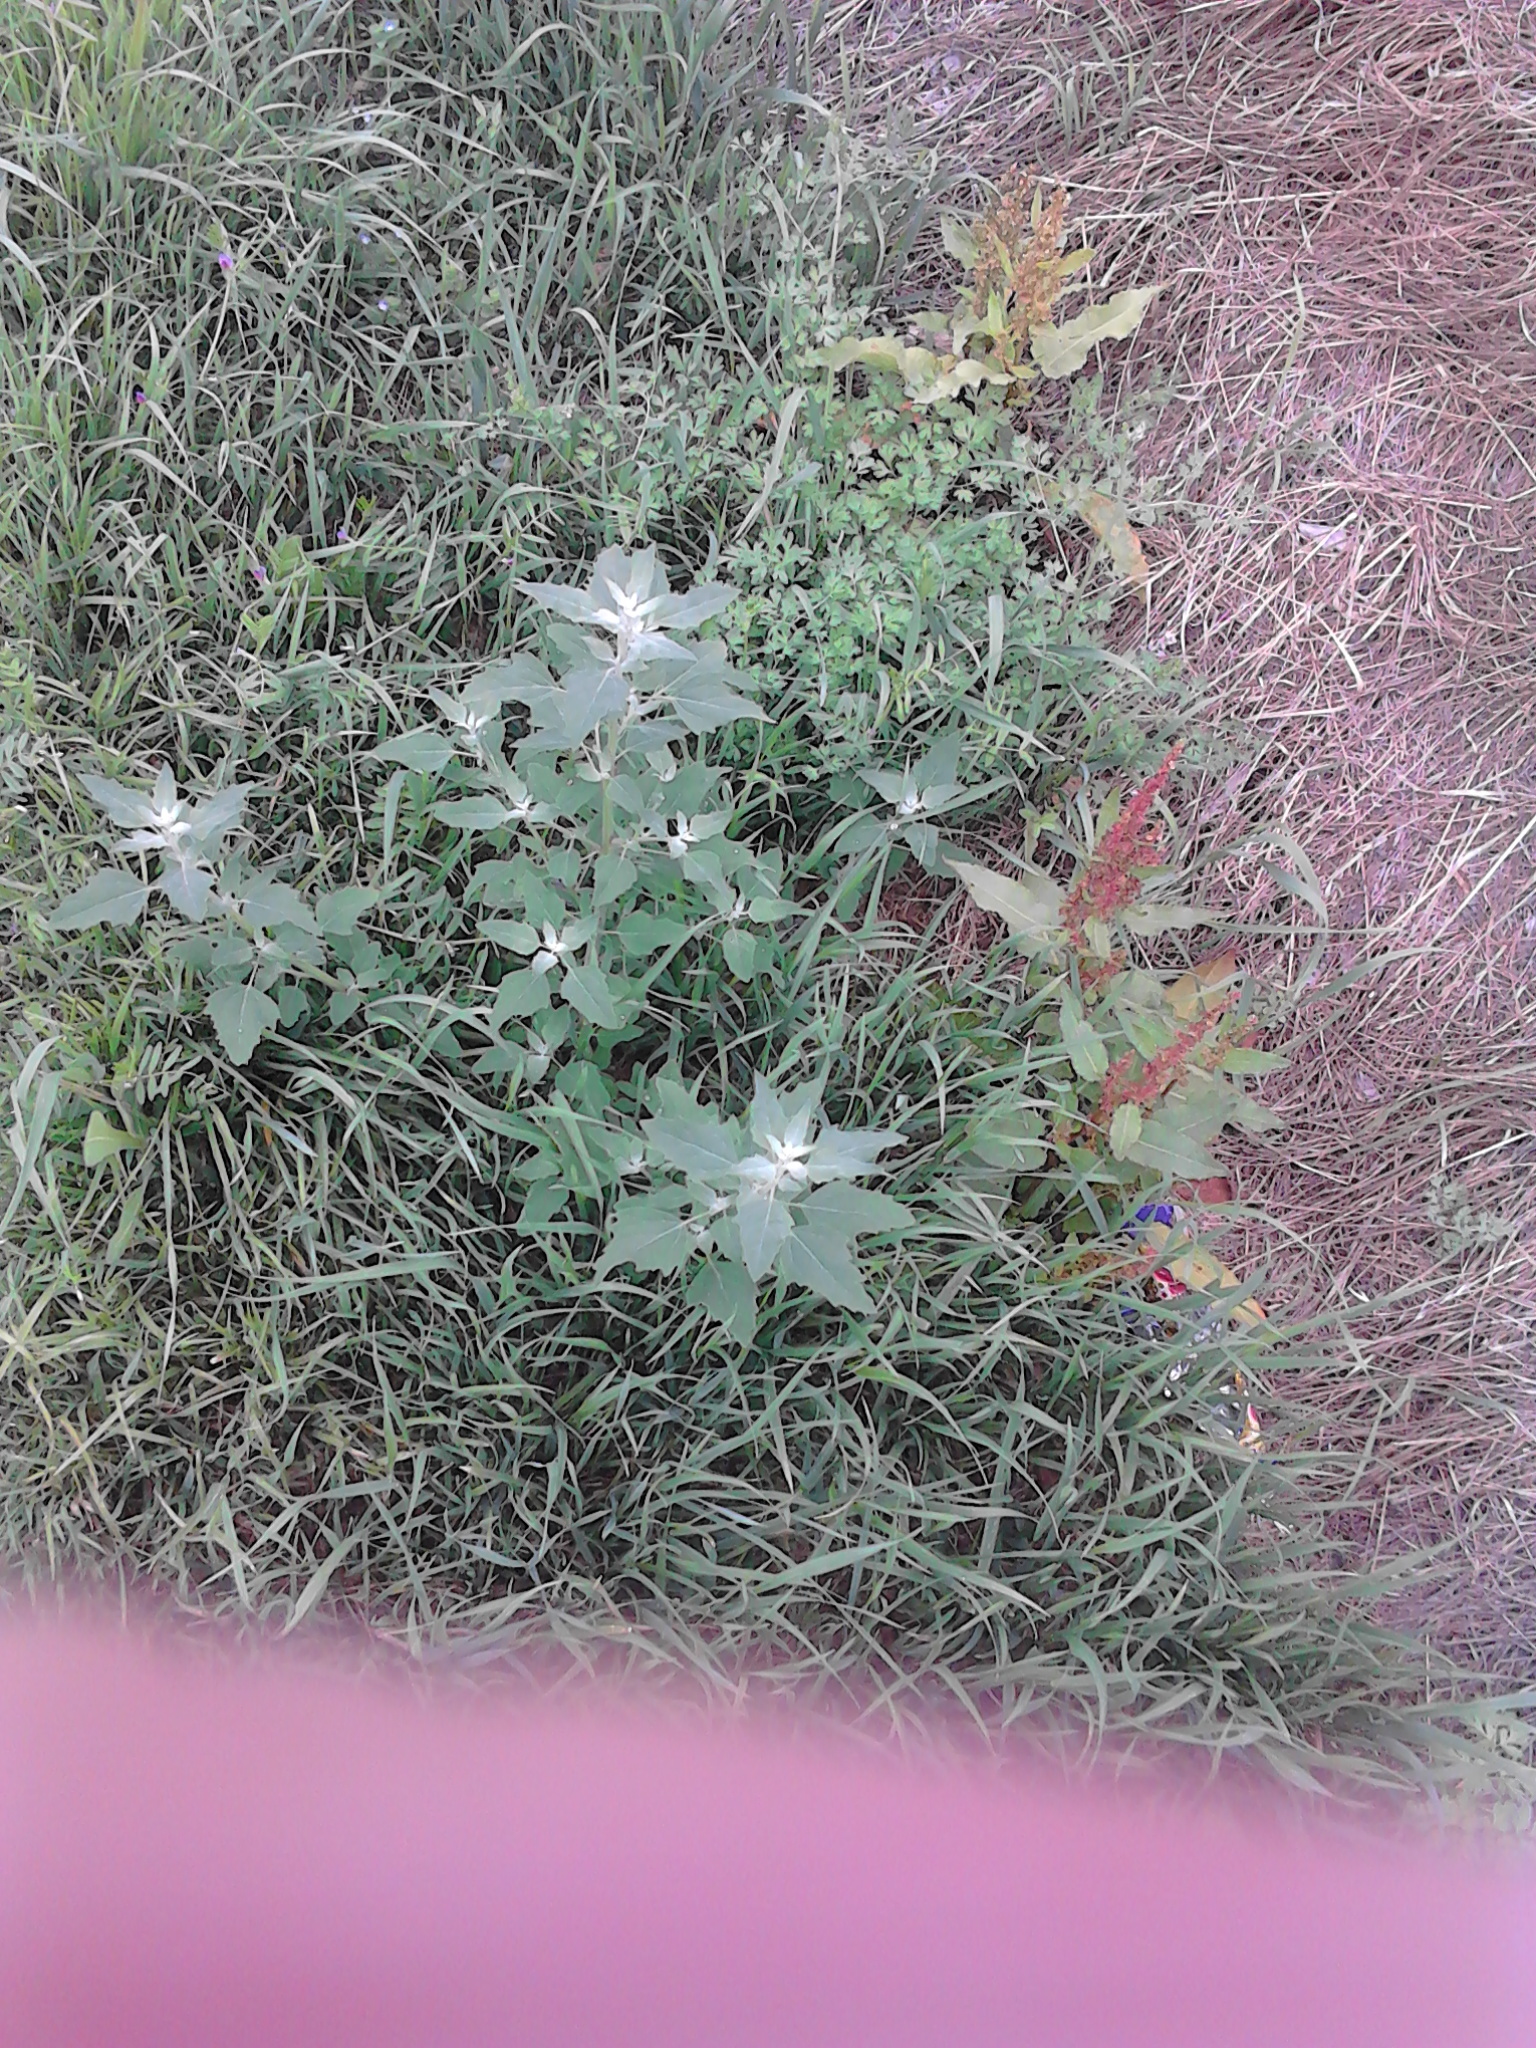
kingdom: Plantae
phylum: Tracheophyta
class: Magnoliopsida
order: Caryophyllales
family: Amaranthaceae
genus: Chenopodium
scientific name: Chenopodium album
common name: Fat-hen
